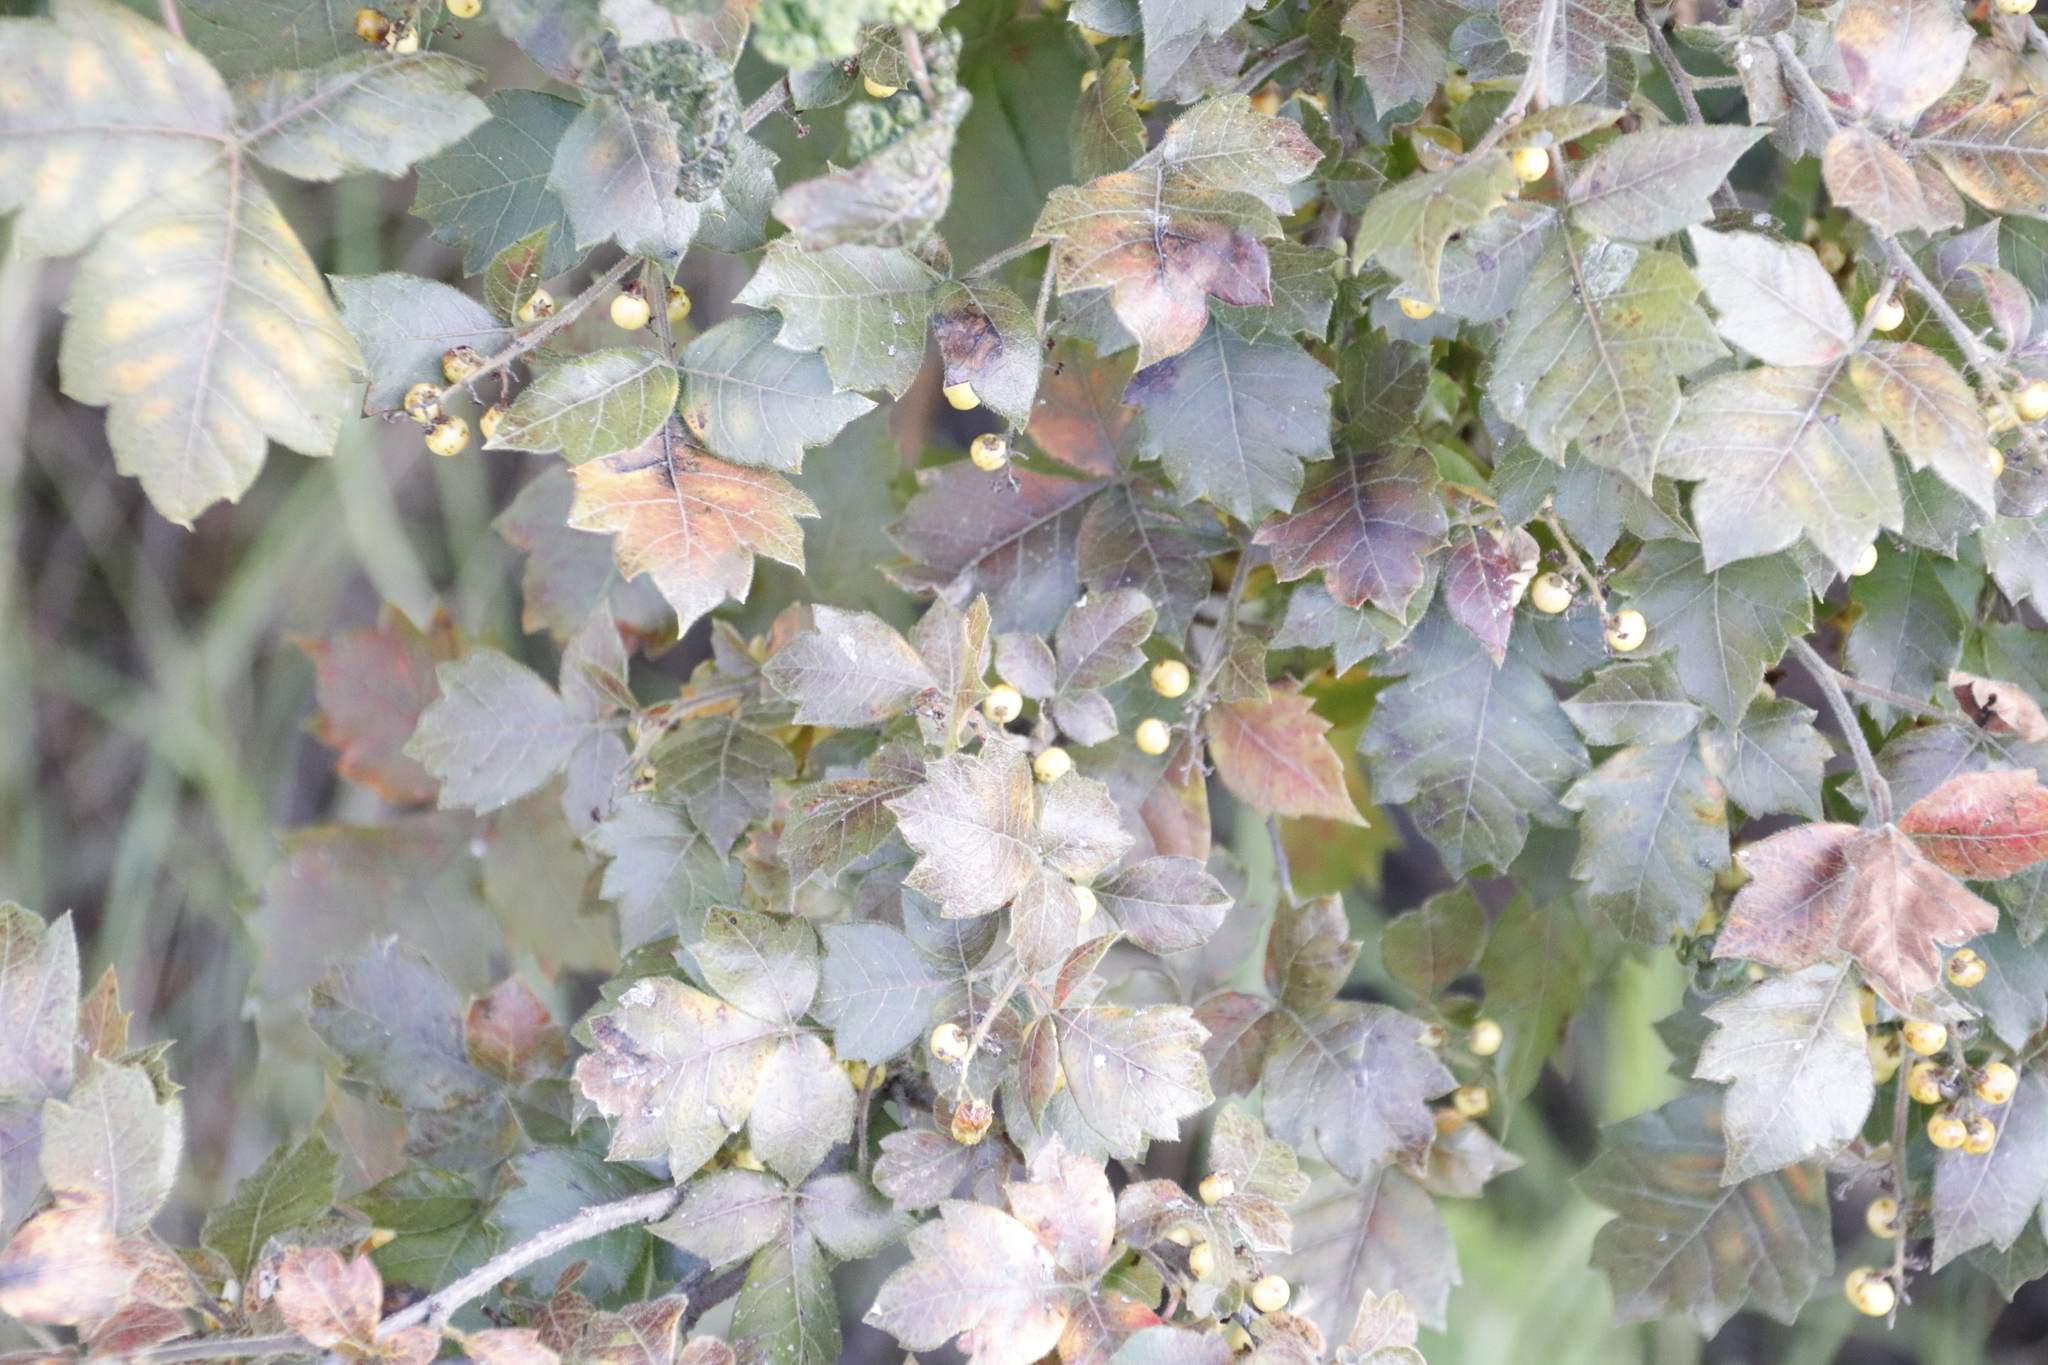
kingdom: Plantae
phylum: Tracheophyta
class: Magnoliopsida
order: Sapindales
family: Anacardiaceae
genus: Searsia
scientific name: Searsia dentata
